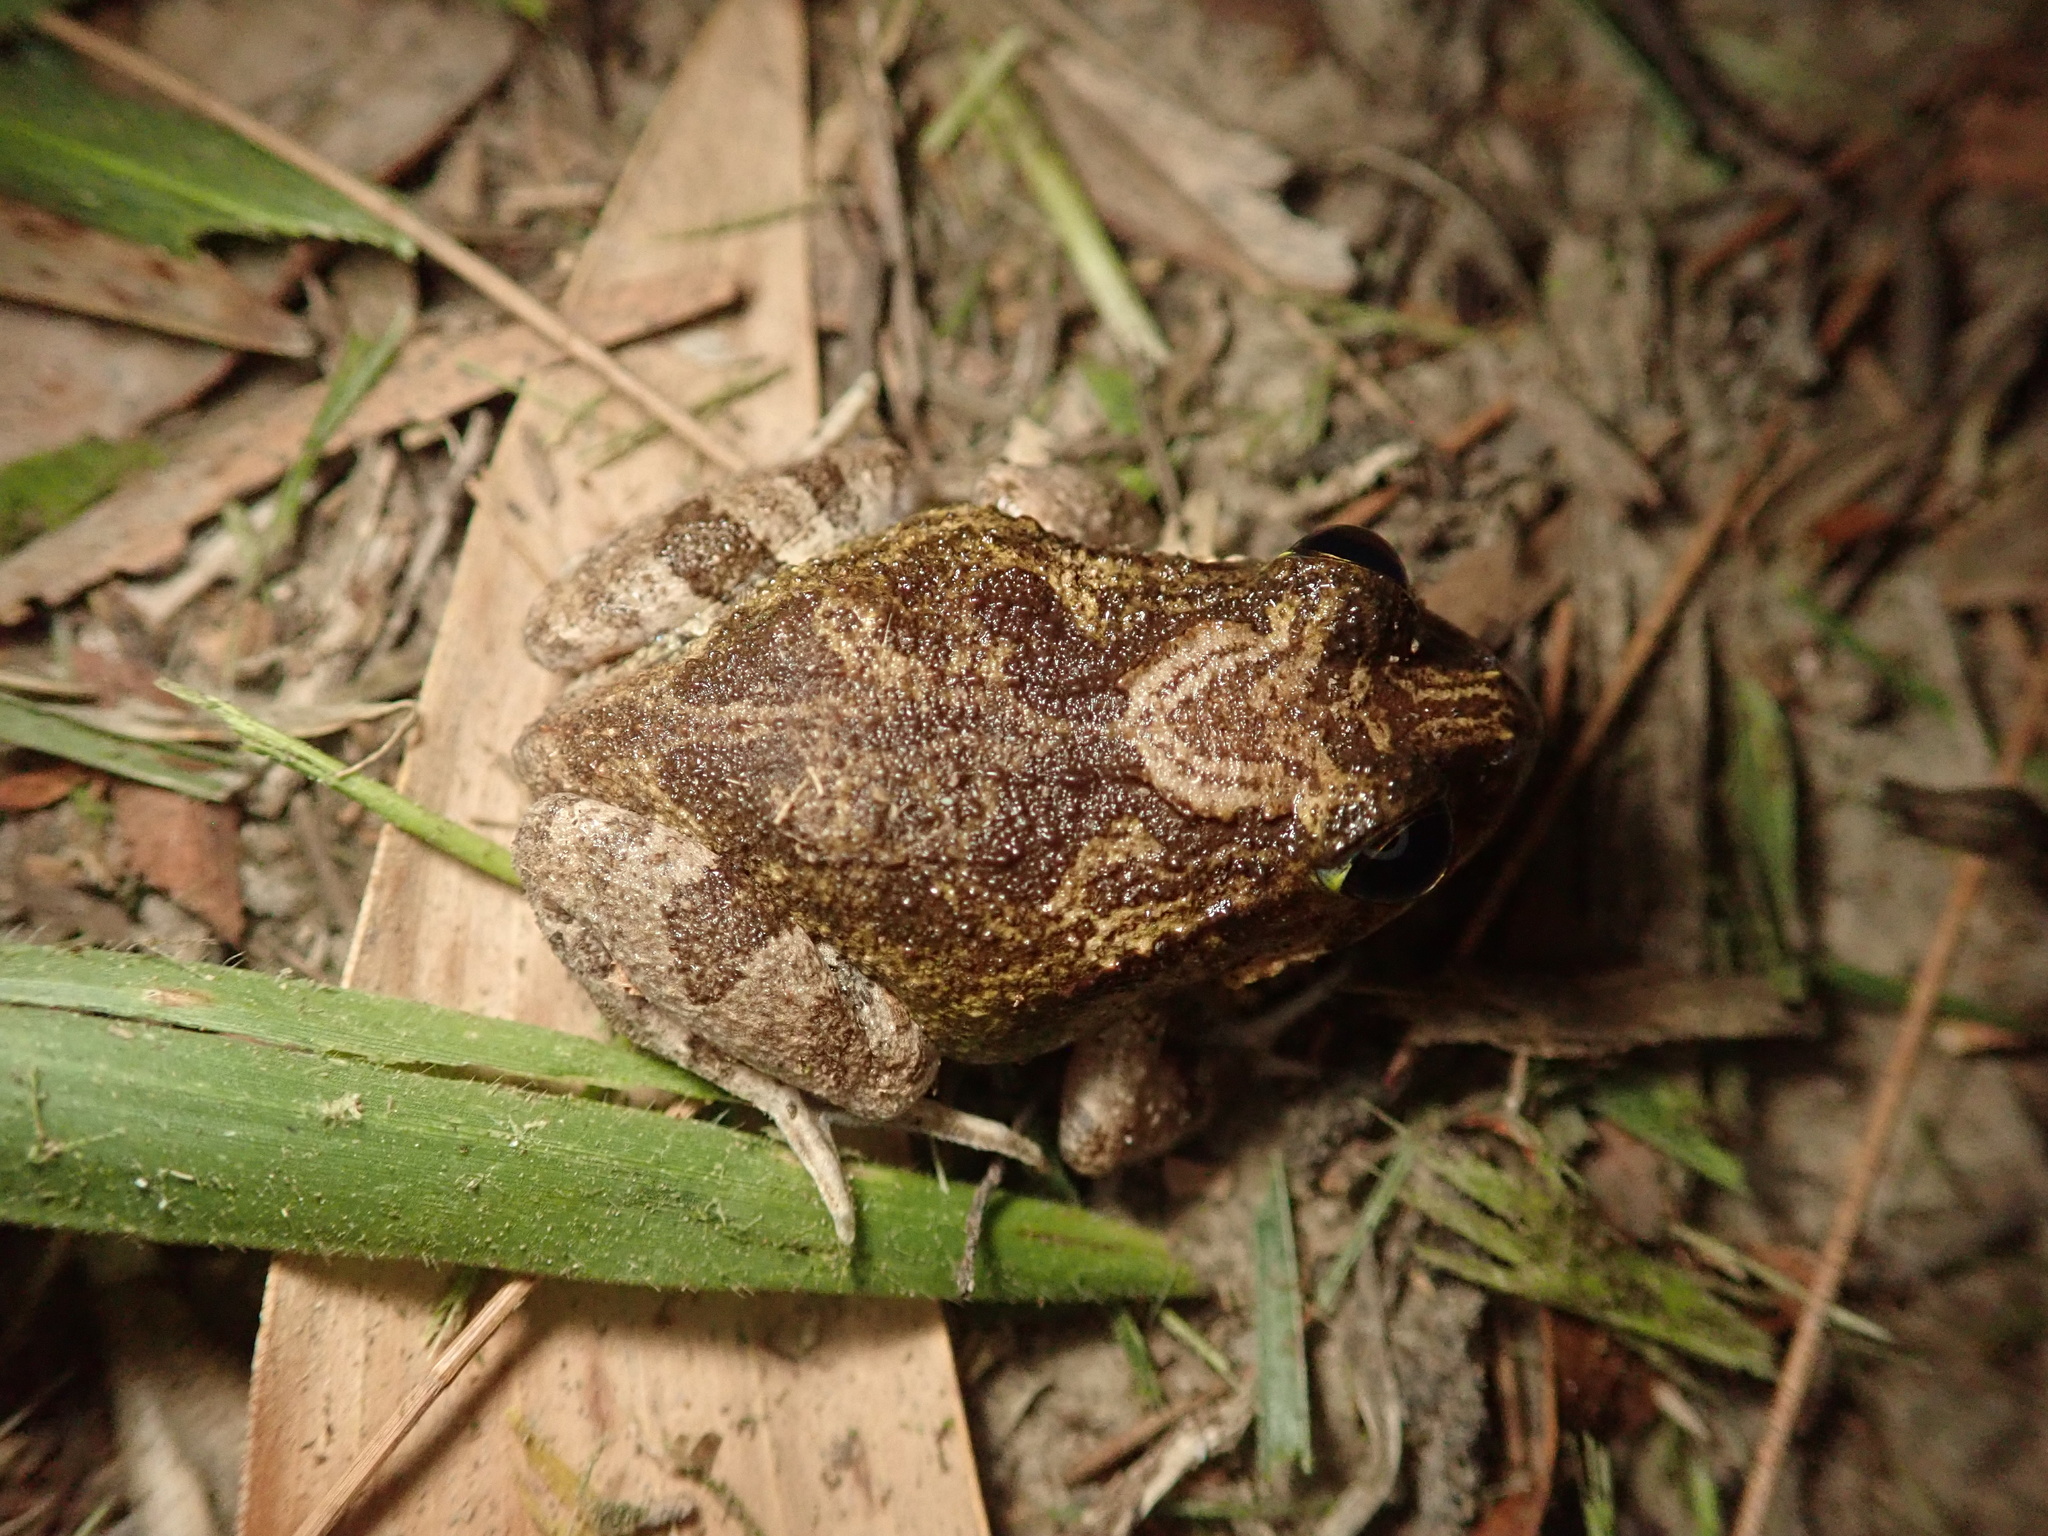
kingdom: Animalia
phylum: Chordata
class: Amphibia
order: Anura
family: Limnodynastidae
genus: Platyplectrum
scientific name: Platyplectrum ornatum
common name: Ornate burrowing frog
